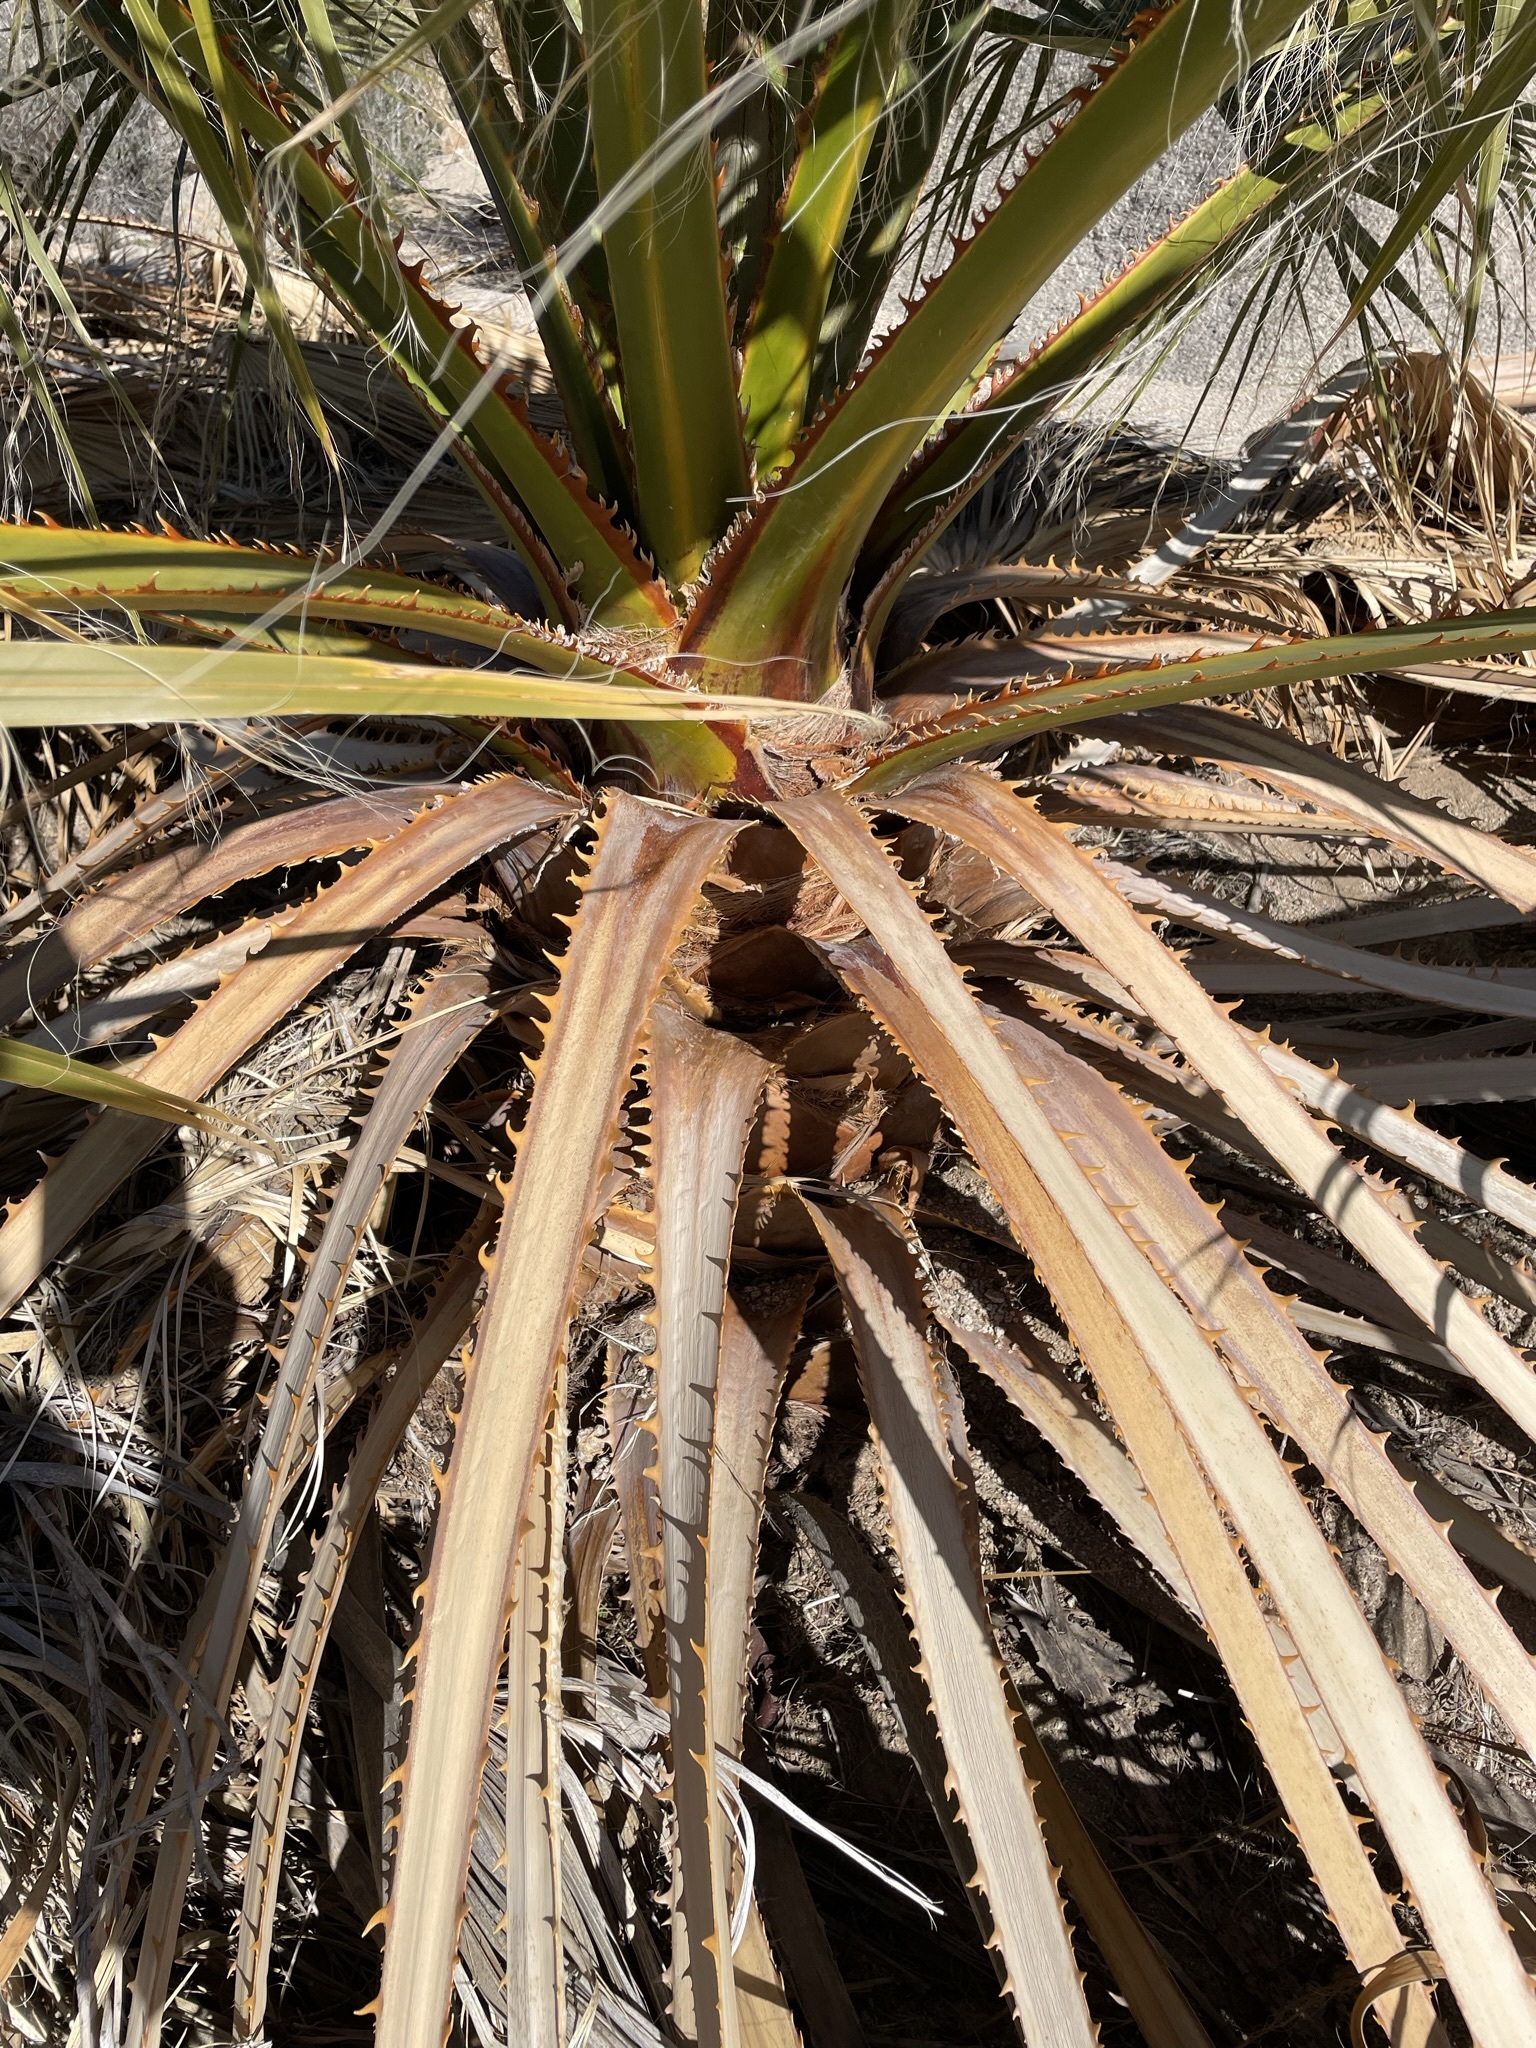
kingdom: Plantae
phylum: Tracheophyta
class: Liliopsida
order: Arecales
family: Arecaceae
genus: Washingtonia
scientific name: Washingtonia filifera
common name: California fan palm
